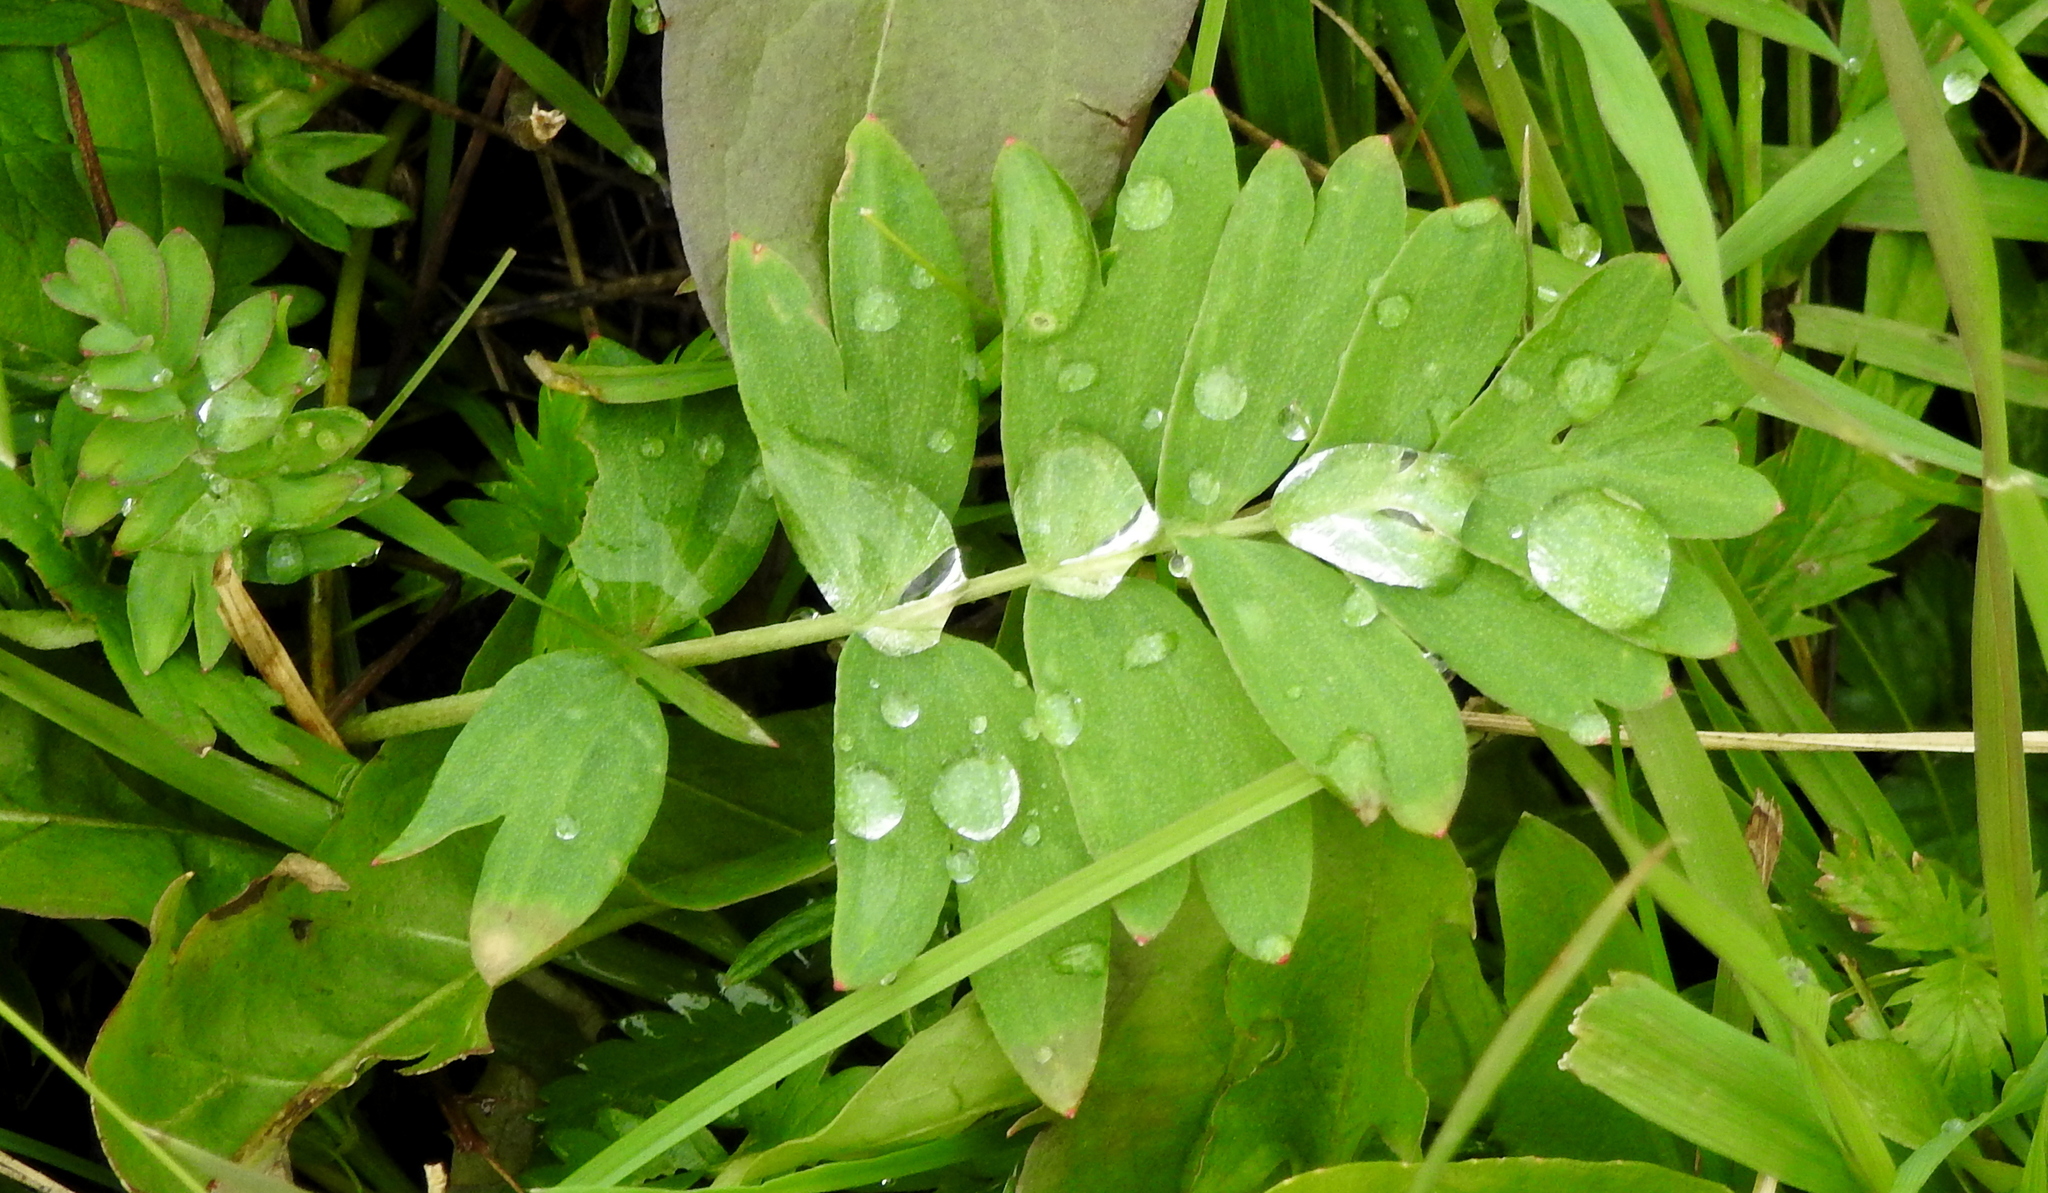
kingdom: Plantae
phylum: Tracheophyta
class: Magnoliopsida
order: Rosales
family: Rosaceae
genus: Sibbaldianthe
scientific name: Sibbaldianthe bifurca
